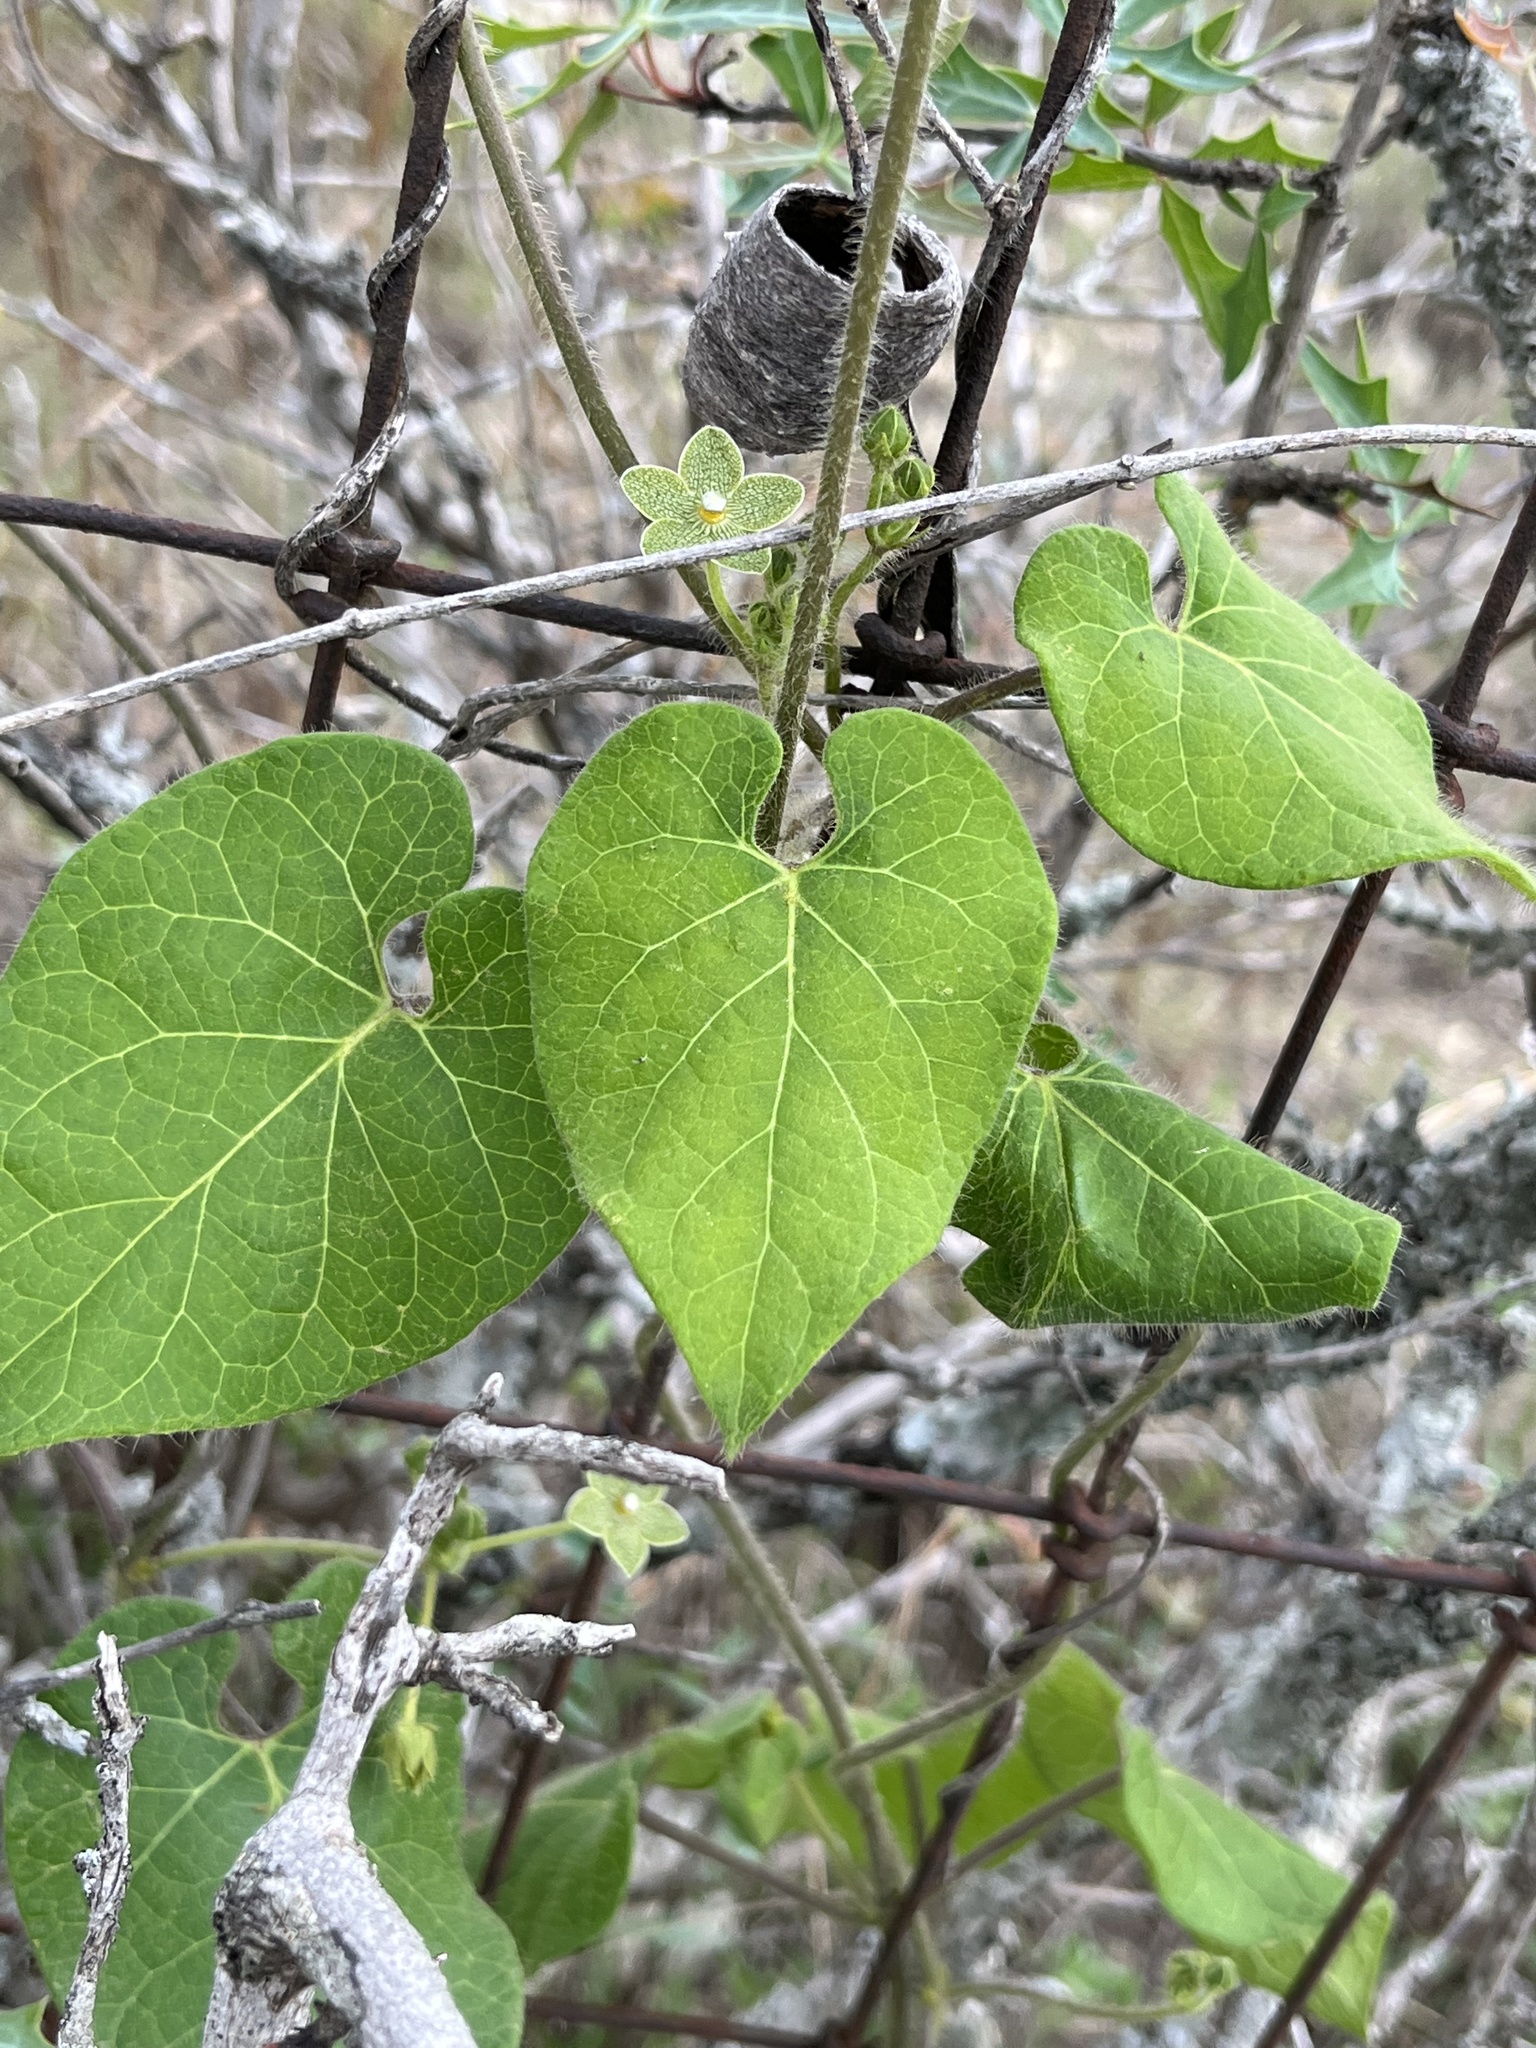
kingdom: Plantae
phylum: Tracheophyta
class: Magnoliopsida
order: Gentianales
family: Apocynaceae
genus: Dictyanthus
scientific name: Dictyanthus reticulatus
